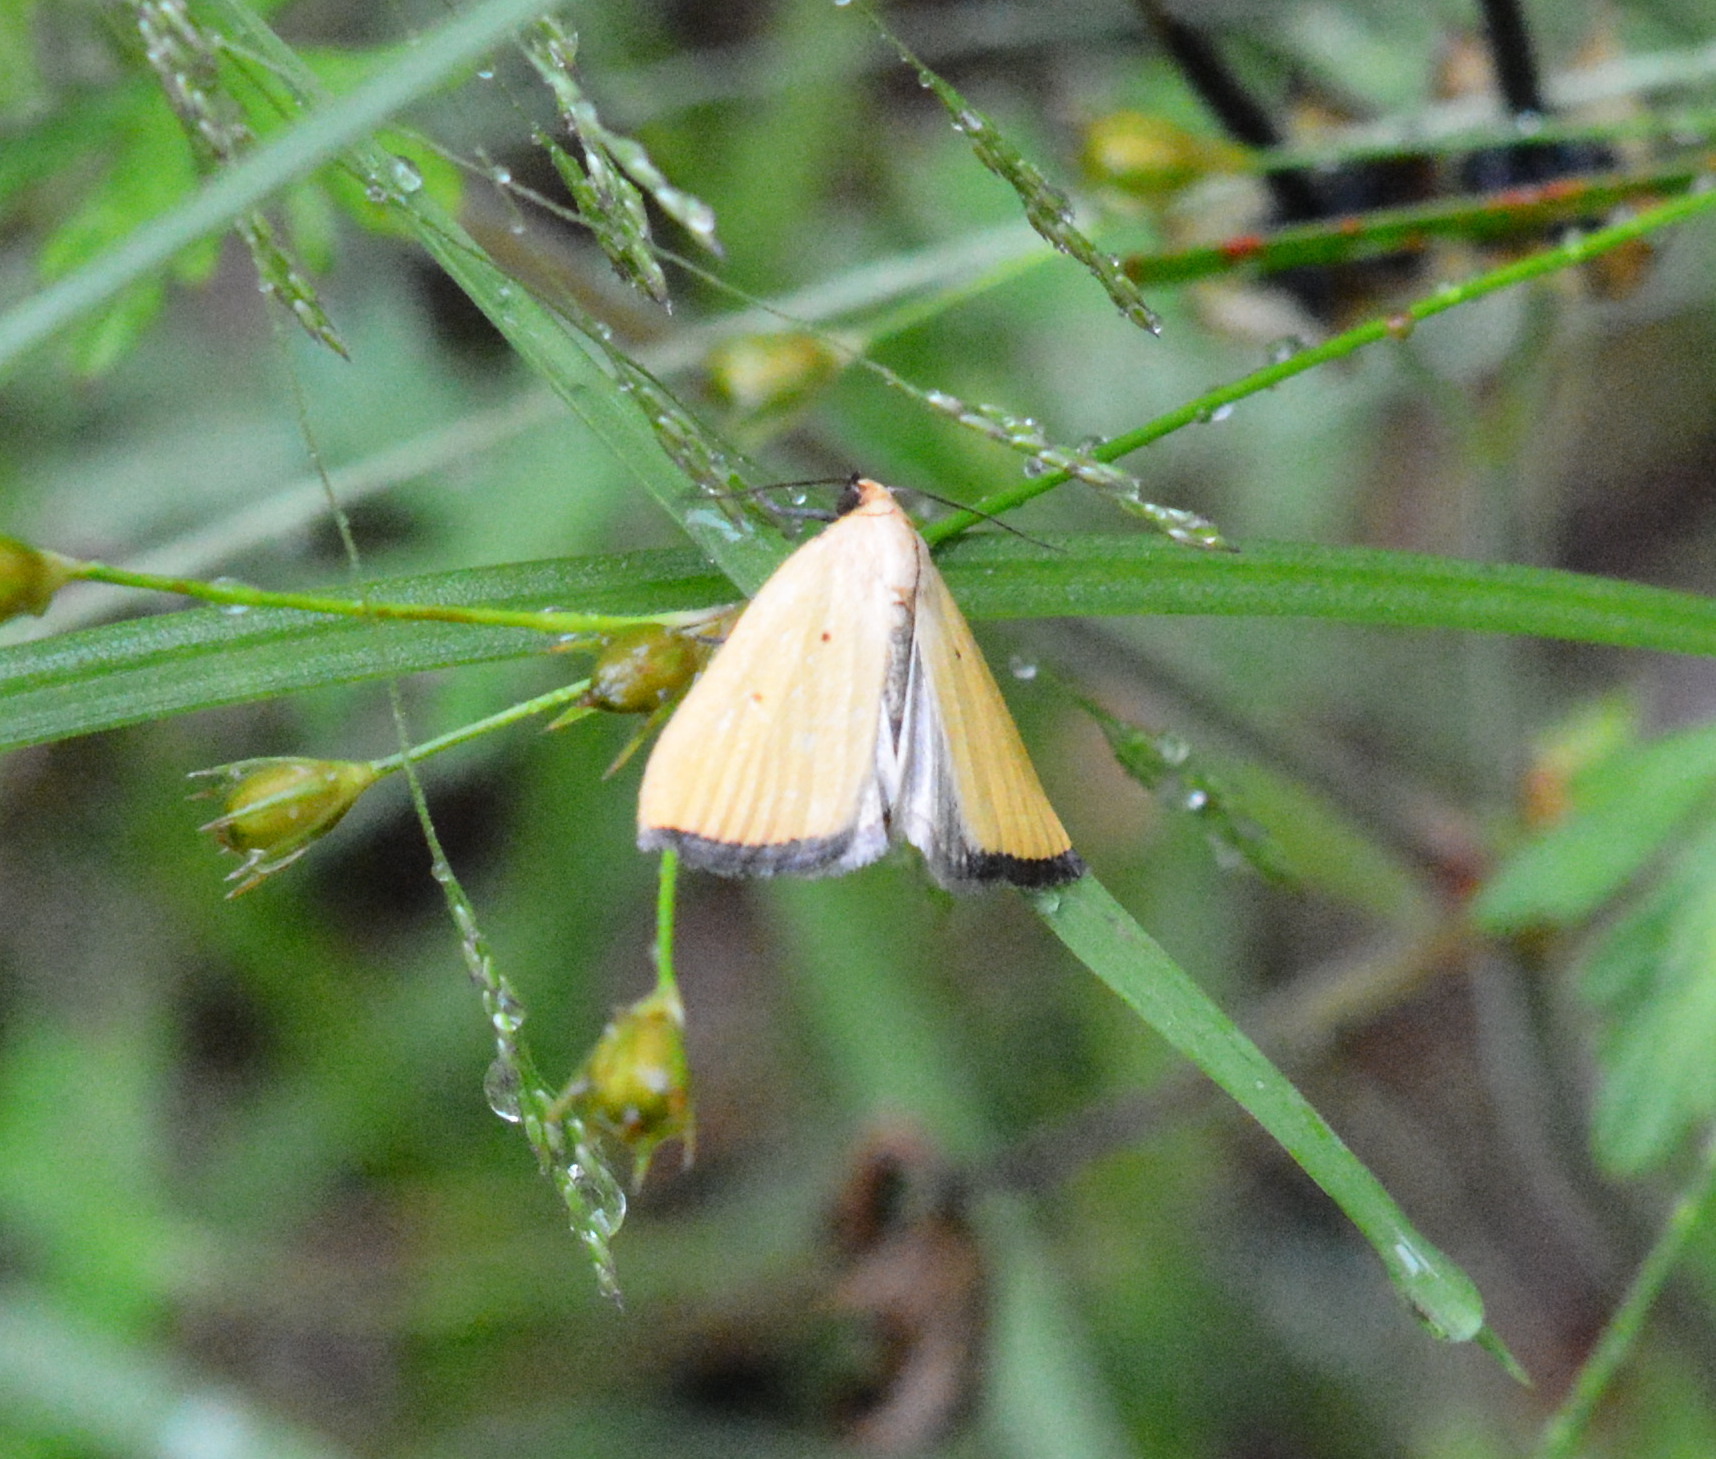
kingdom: Animalia
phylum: Arthropoda
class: Insecta
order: Lepidoptera
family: Noctuidae
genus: Marimatha
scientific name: Marimatha nigrofimbria
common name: Black-bordered lemon moth
